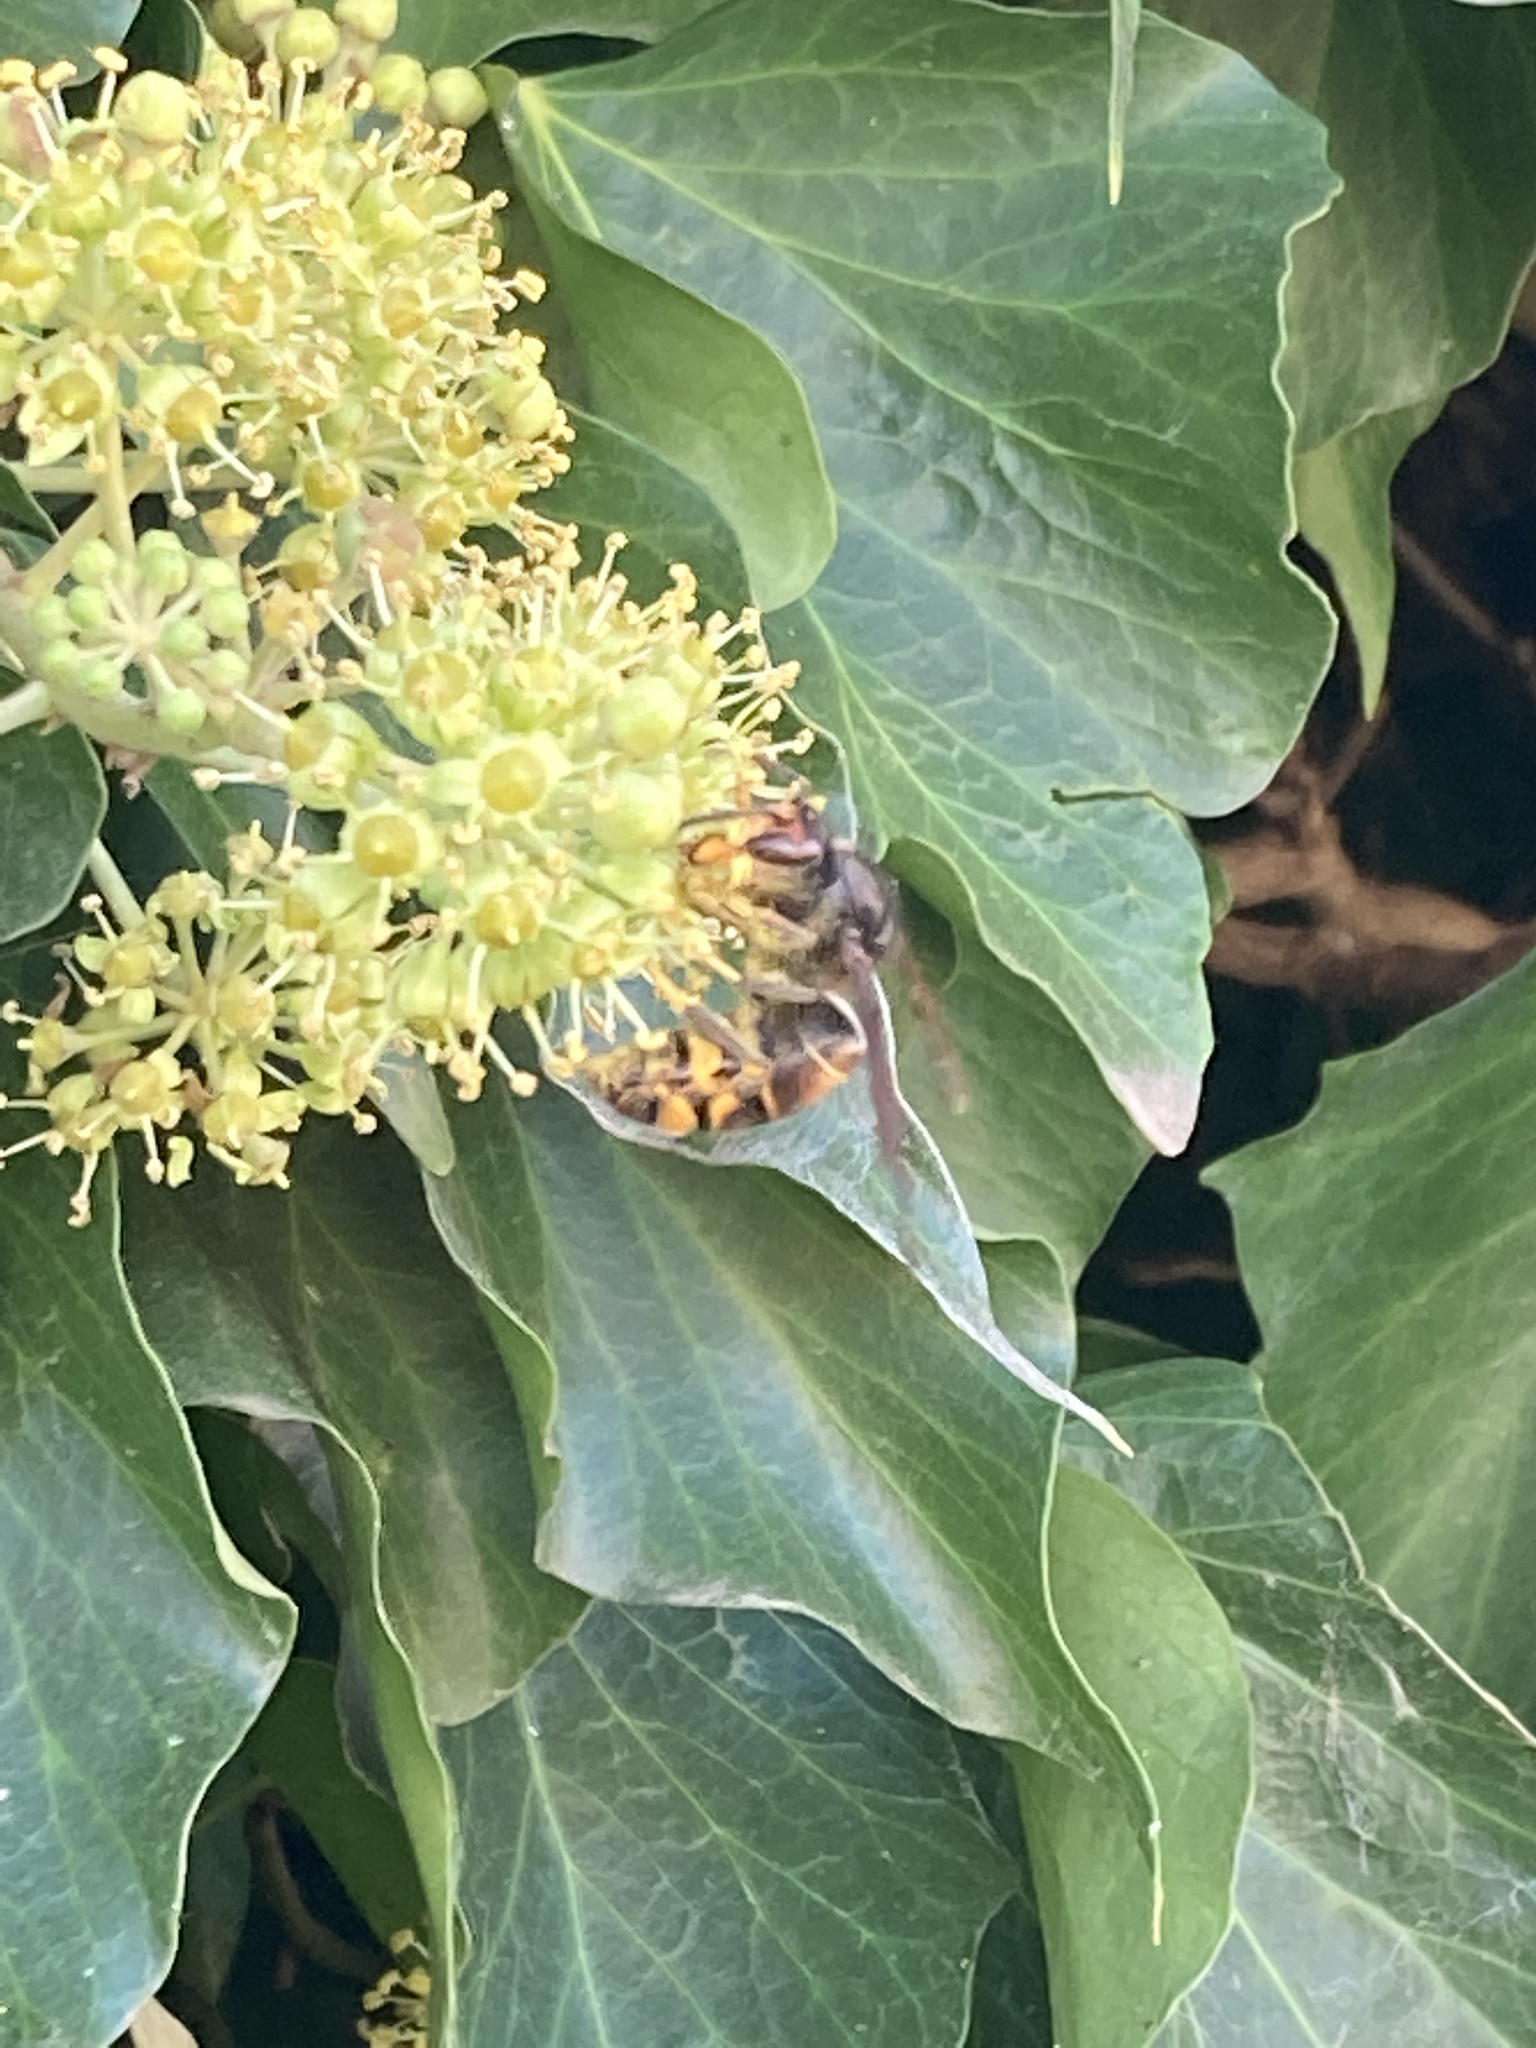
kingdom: Animalia
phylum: Arthropoda
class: Insecta
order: Hymenoptera
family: Vespidae
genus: Vespa
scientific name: Vespa velutina
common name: Asian hornet
